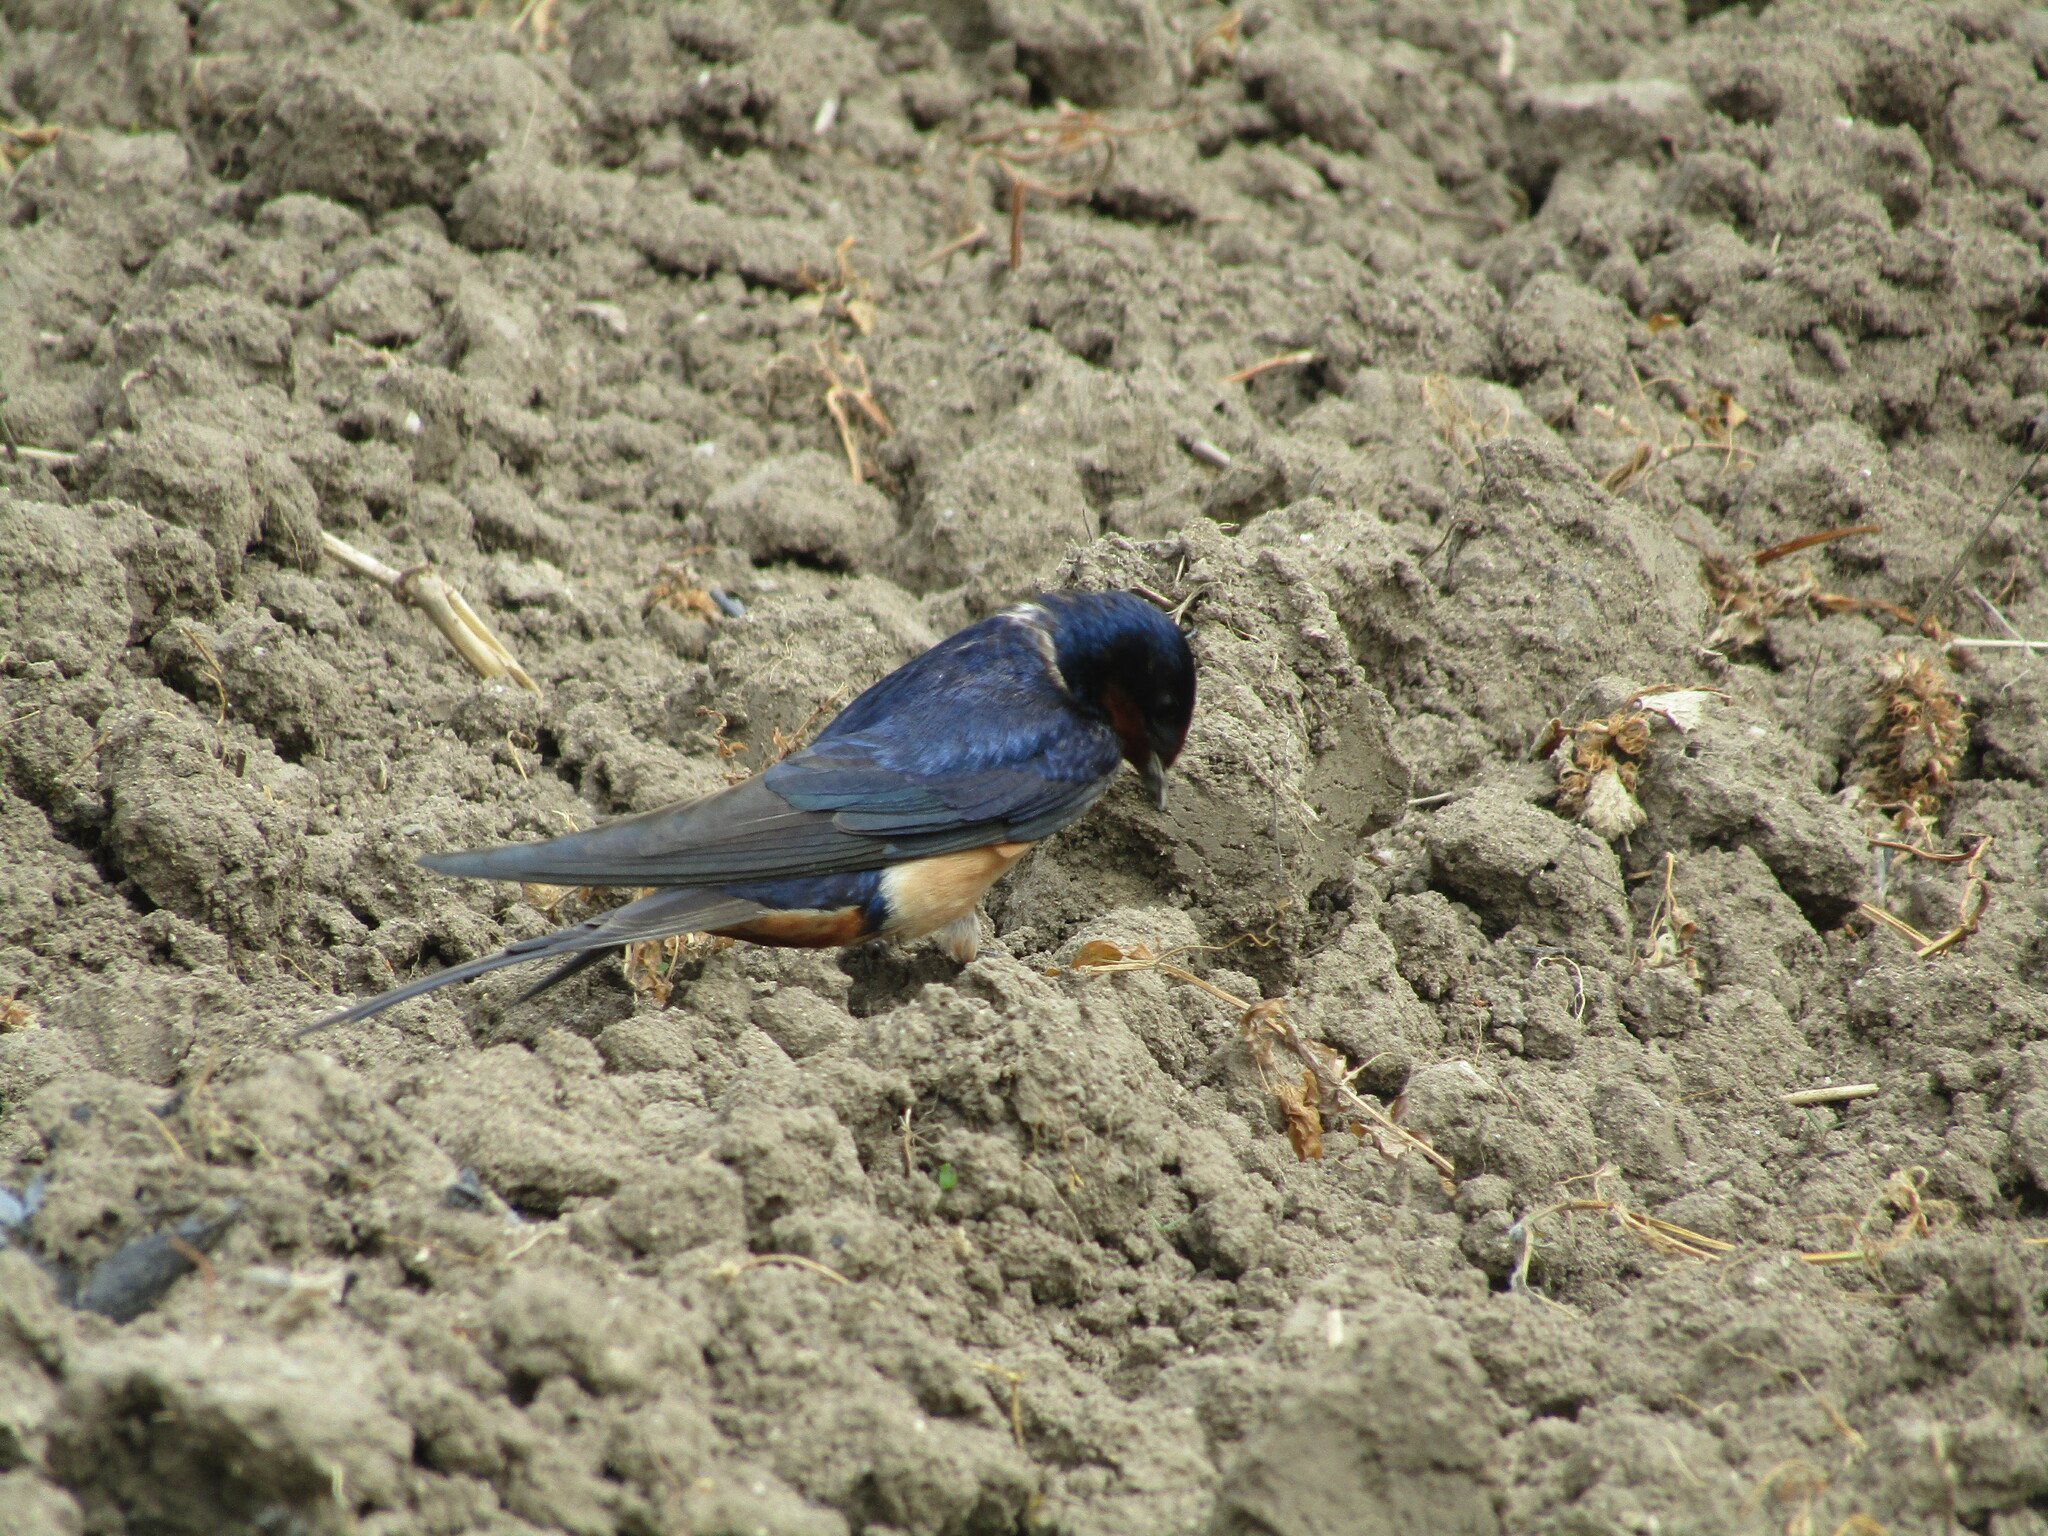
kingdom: Animalia
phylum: Chordata
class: Aves
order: Passeriformes
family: Hirundinidae
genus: Hirundo
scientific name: Hirundo rustica
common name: Barn swallow
